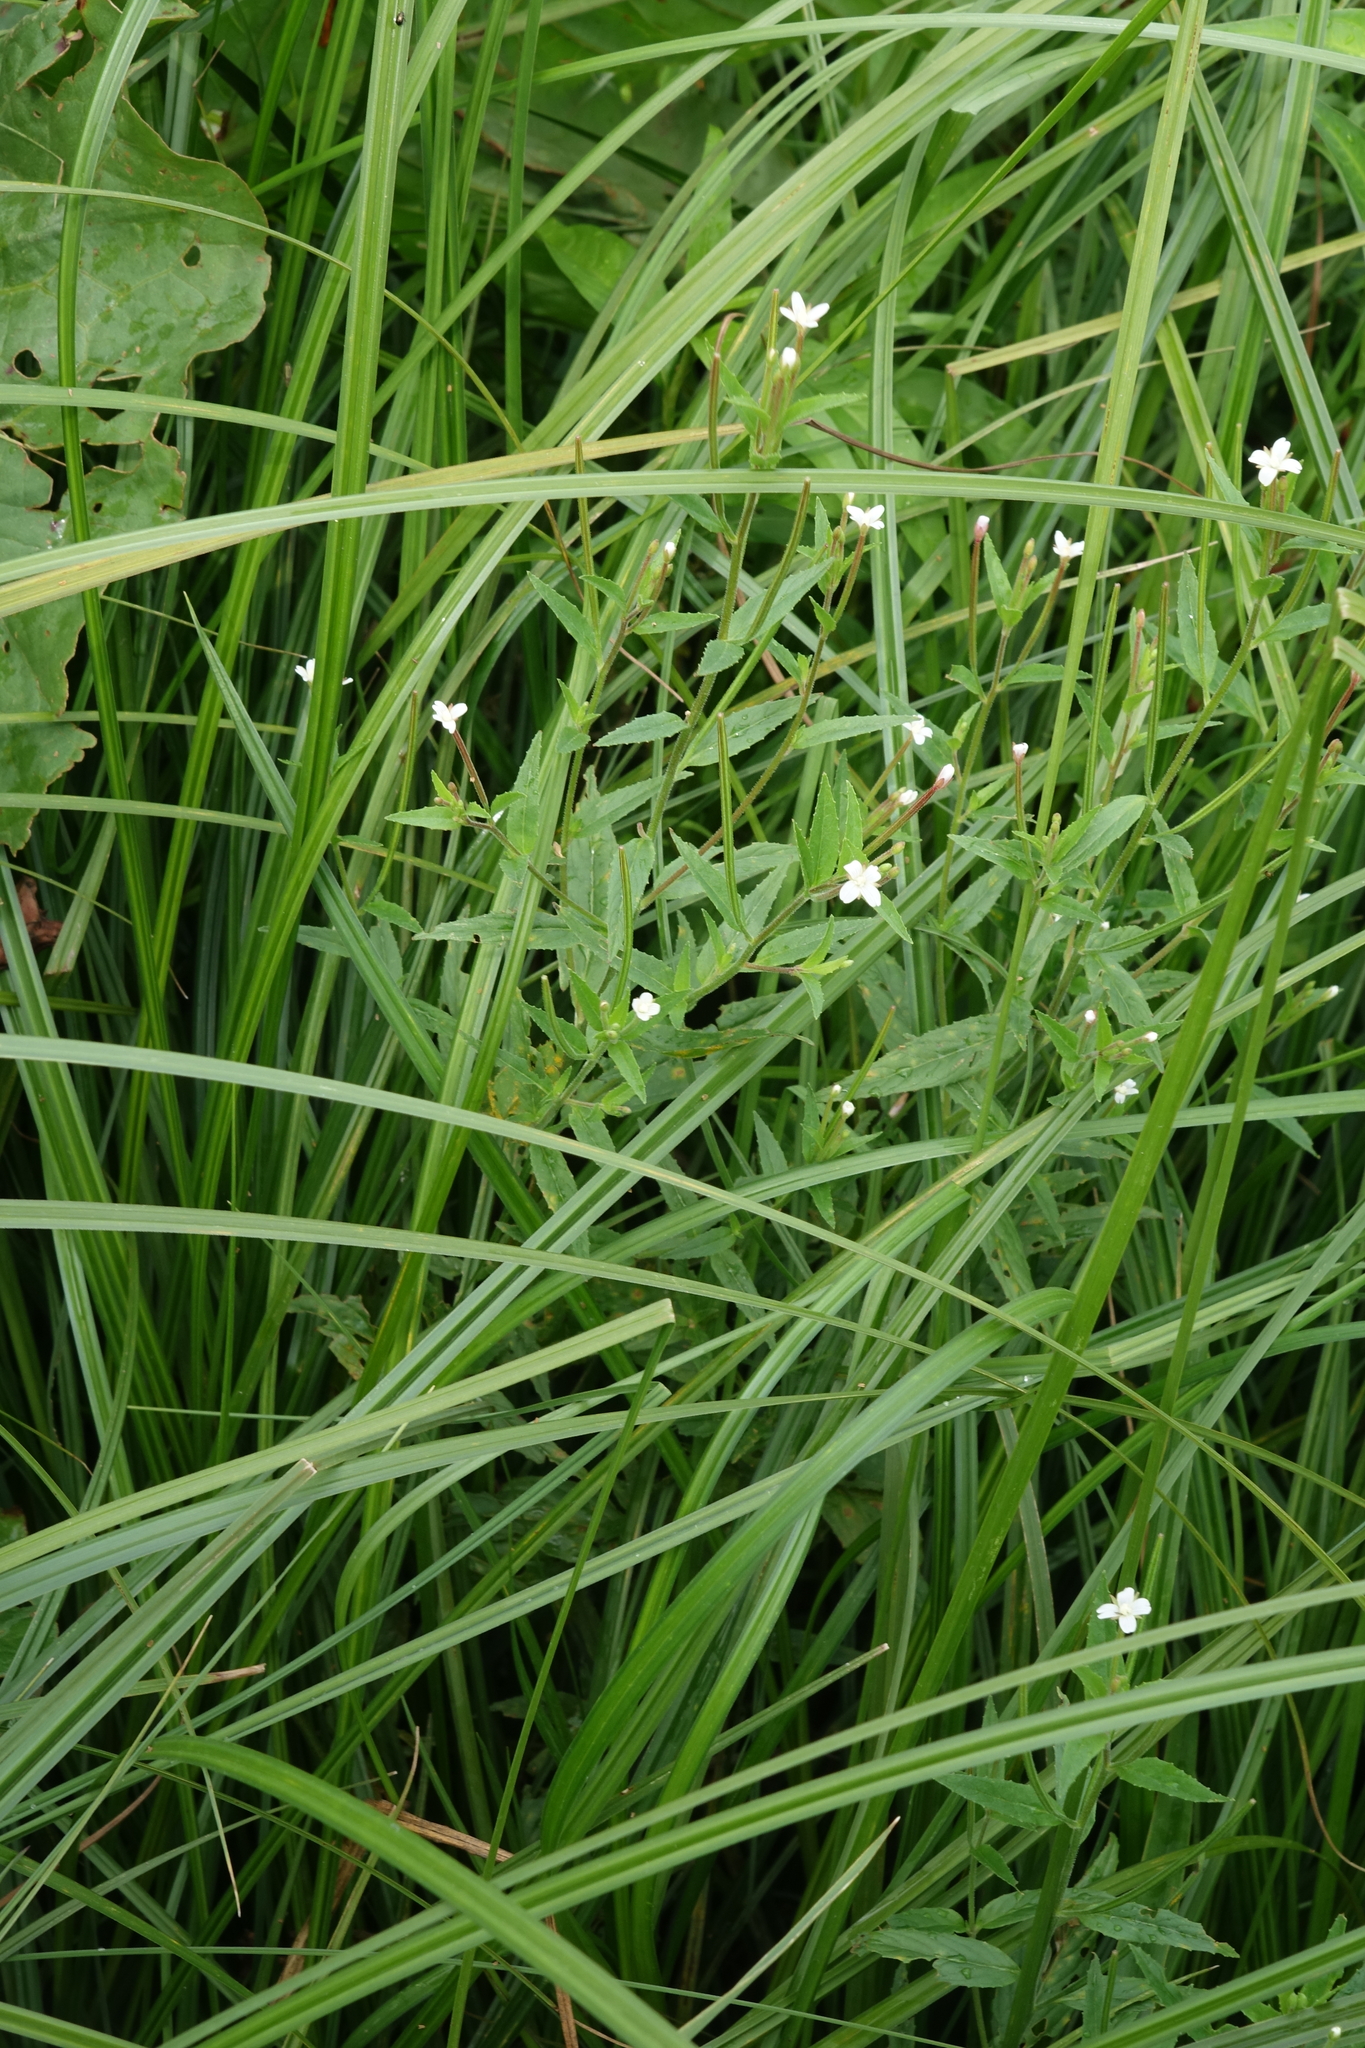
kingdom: Plantae
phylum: Tracheophyta
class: Magnoliopsida
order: Myrtales
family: Onagraceae
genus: Epilobium
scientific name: Epilobium pseudorubescens
